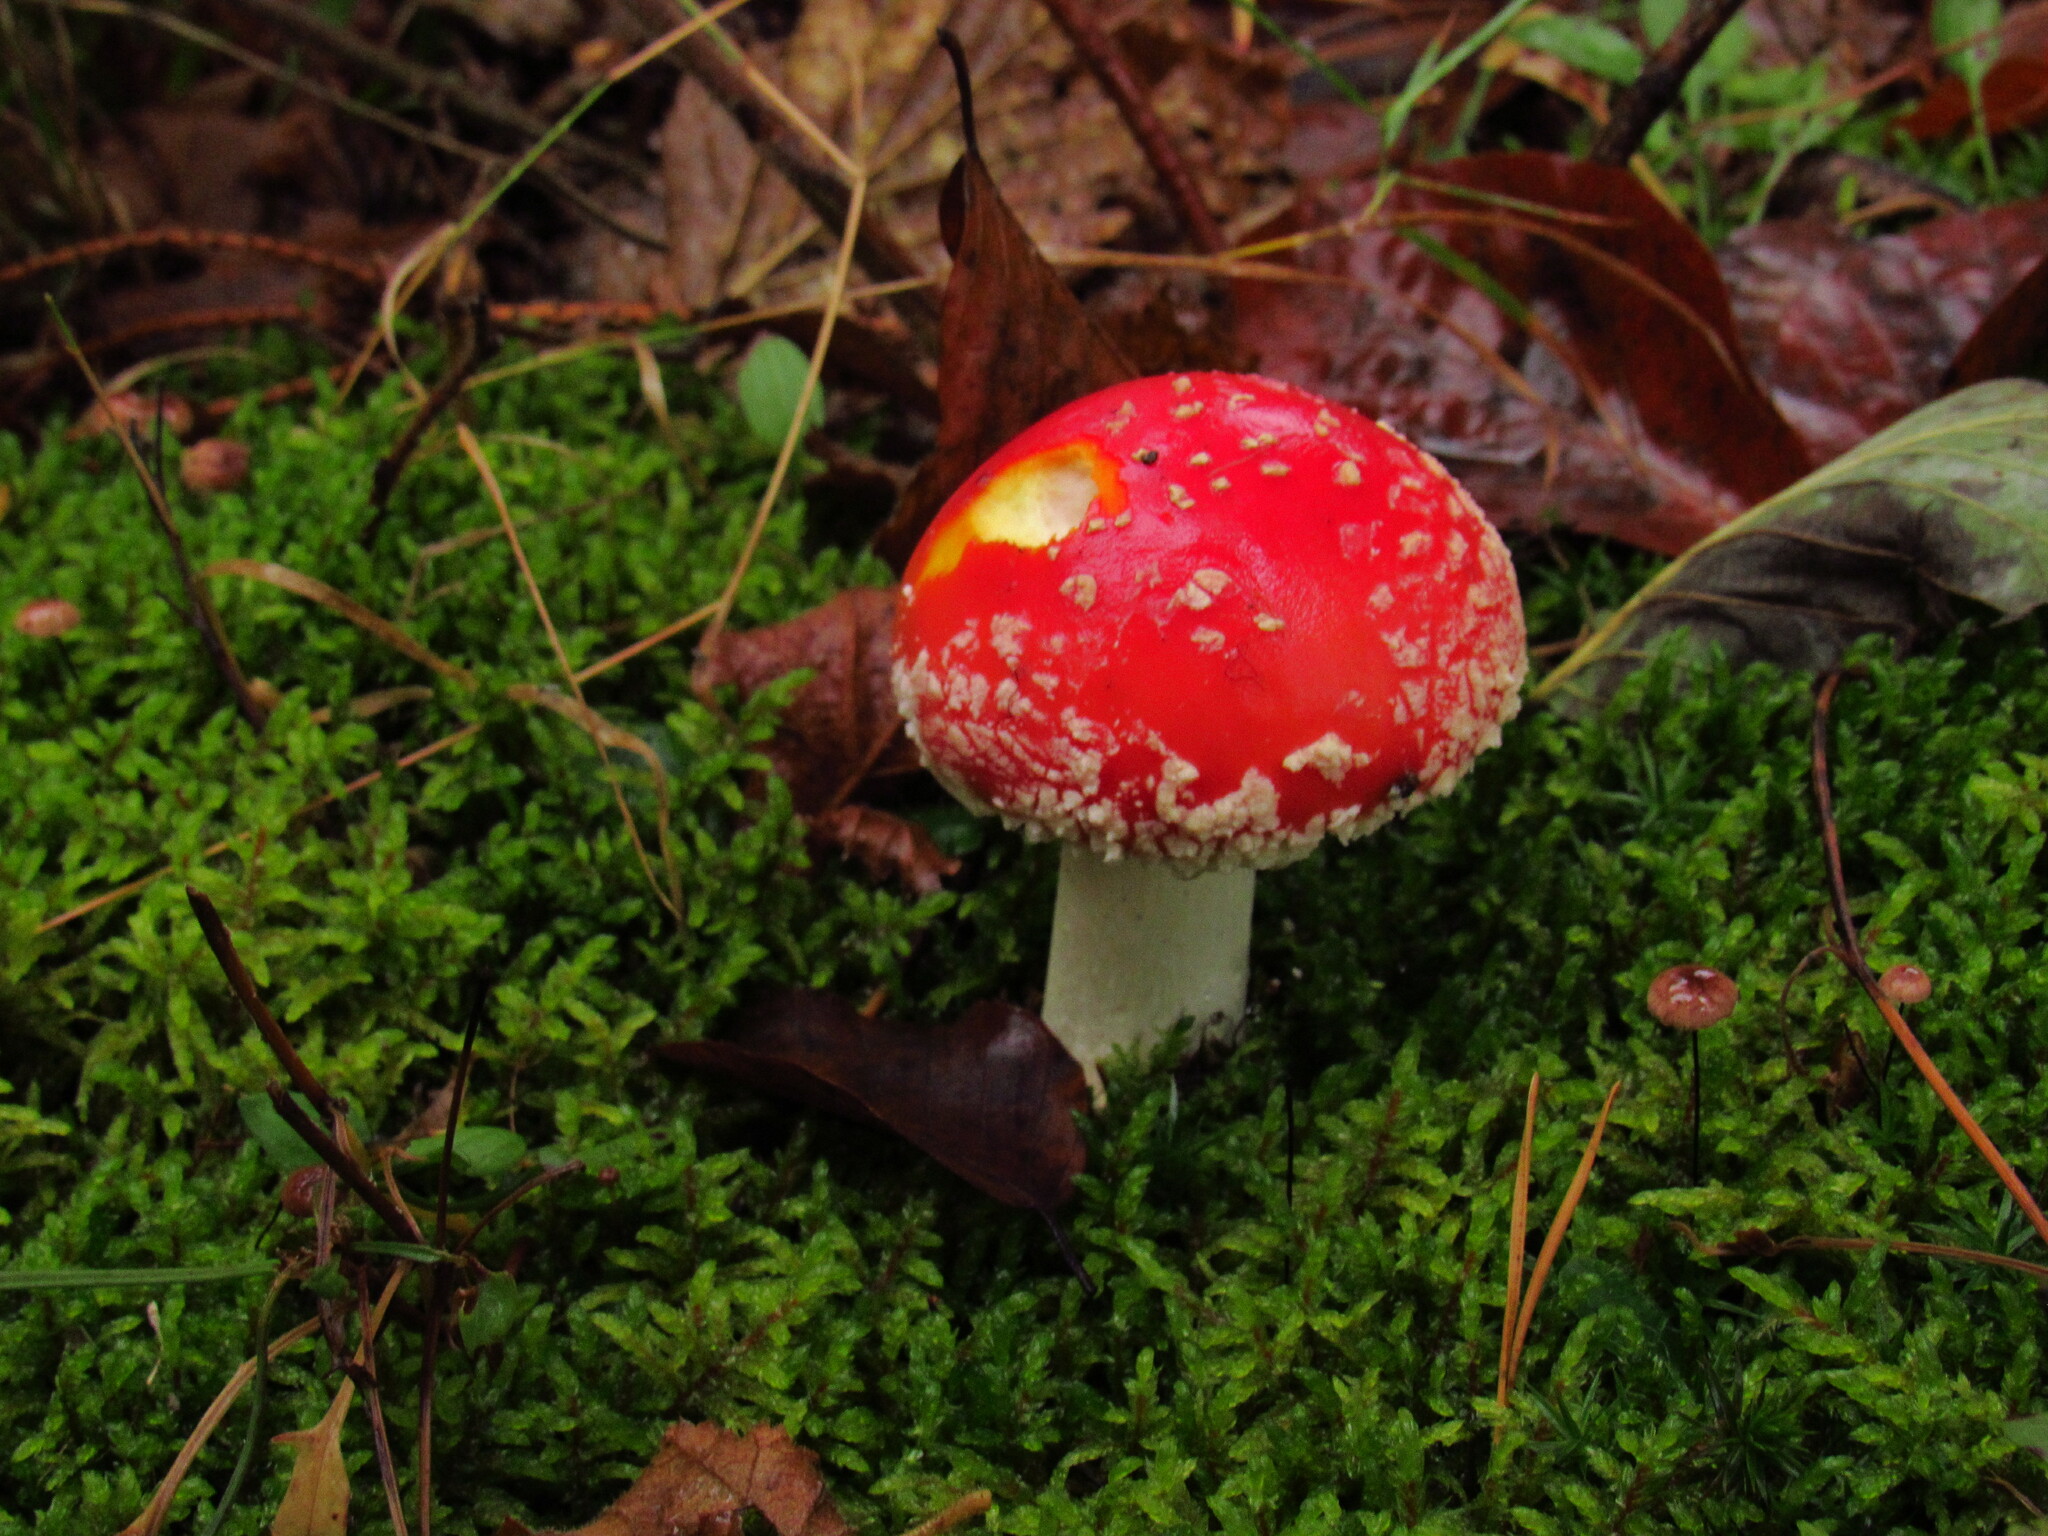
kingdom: Fungi
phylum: Basidiomycota
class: Agaricomycetes
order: Agaricales
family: Amanitaceae
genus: Amanita
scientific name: Amanita muscaria
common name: Fly agaric
